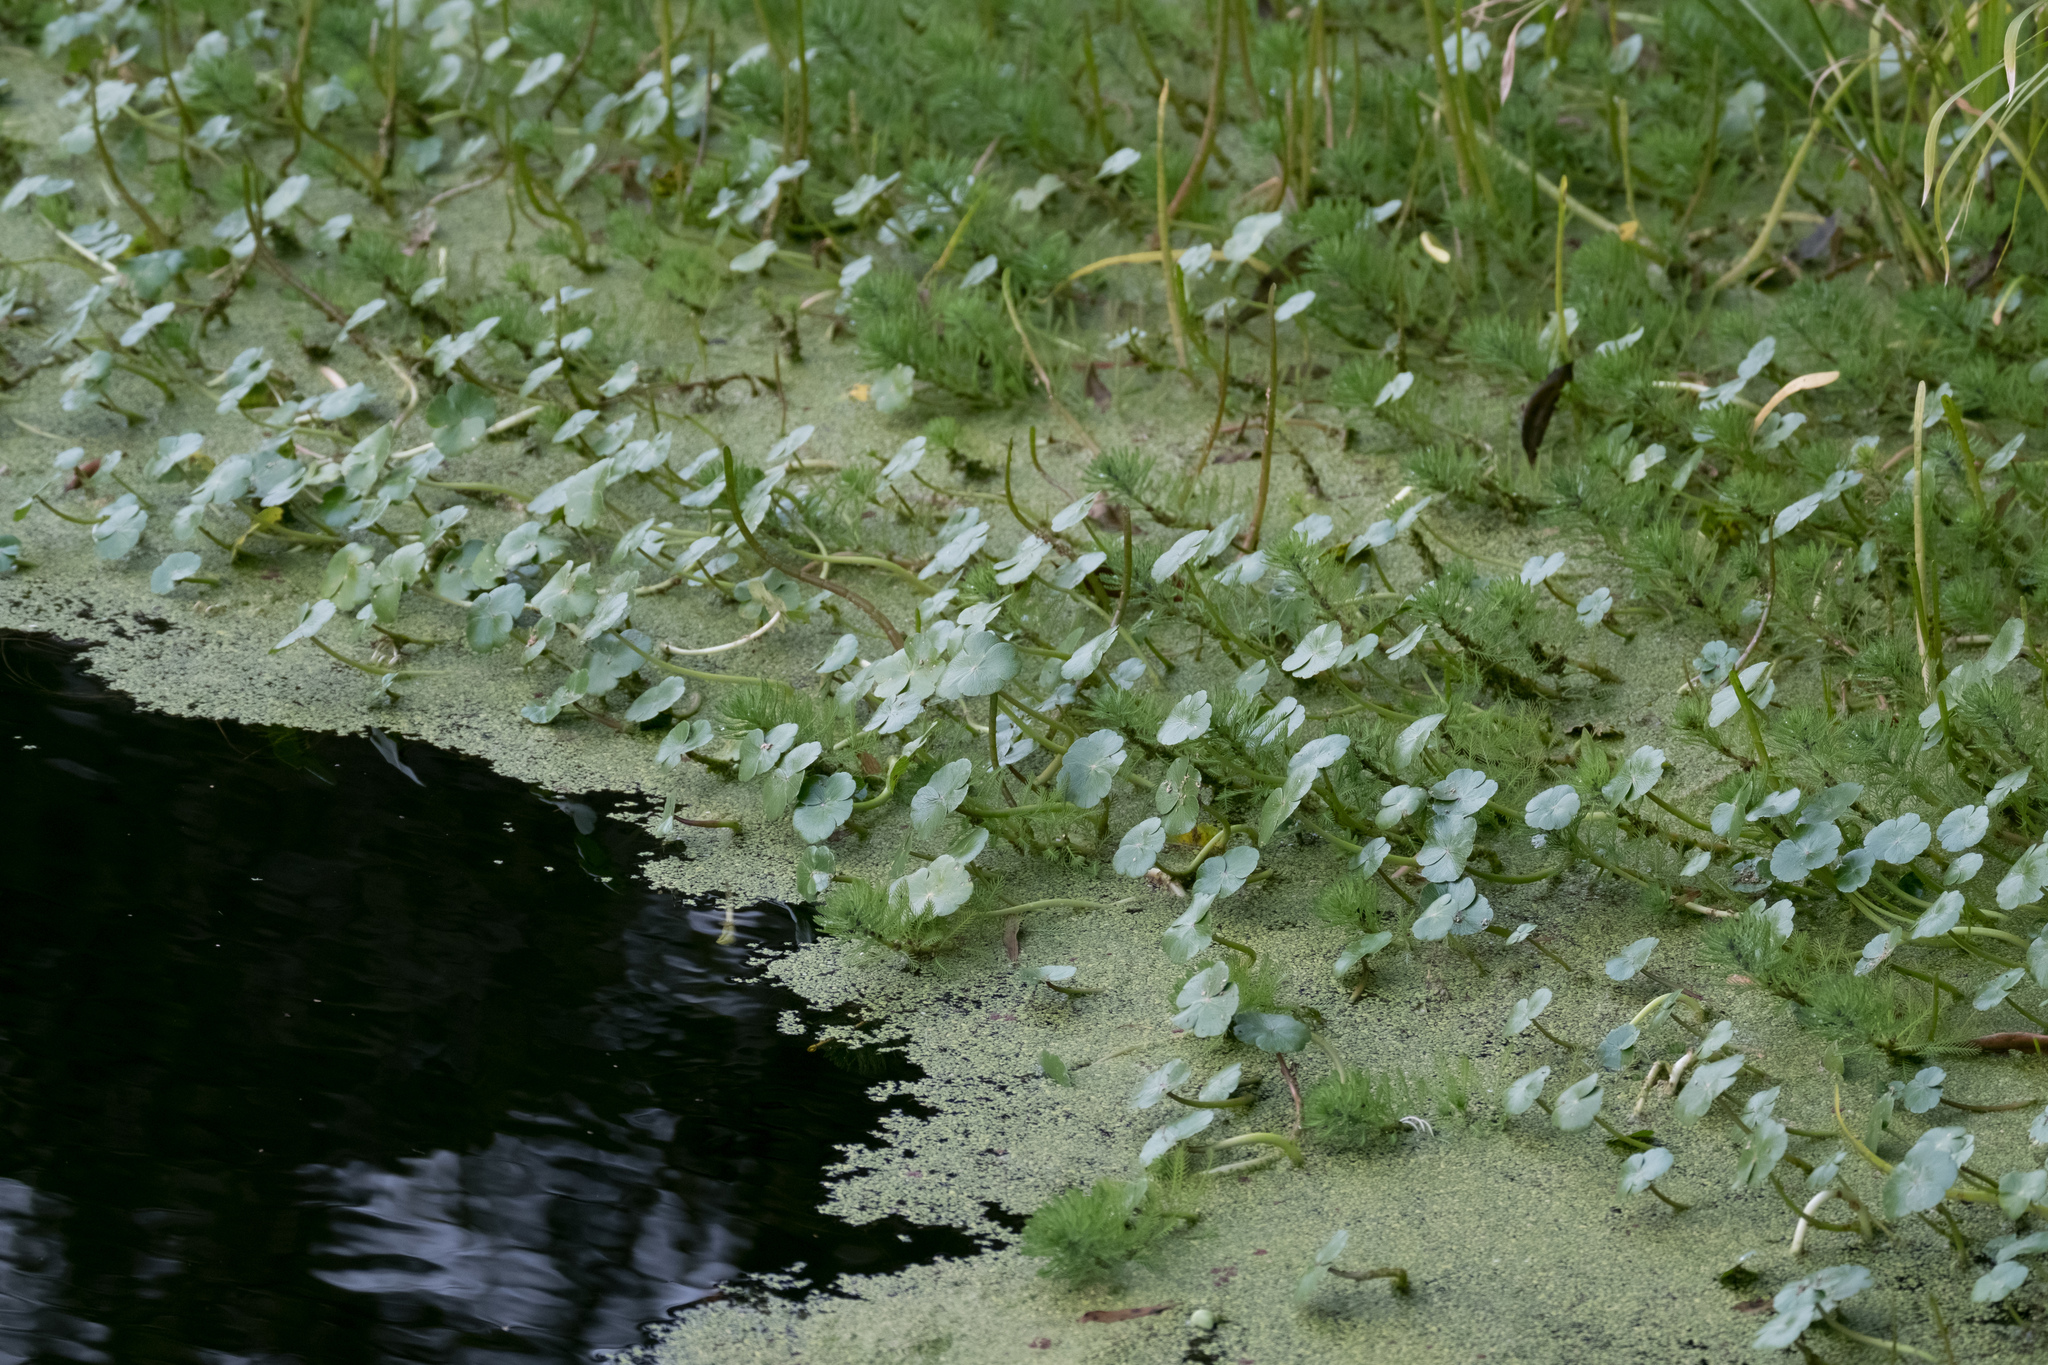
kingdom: Plantae
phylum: Tracheophyta
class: Magnoliopsida
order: Apiales
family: Araliaceae
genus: Hydrocotyle
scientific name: Hydrocotyle ranunculoides
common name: Floating pennywort
